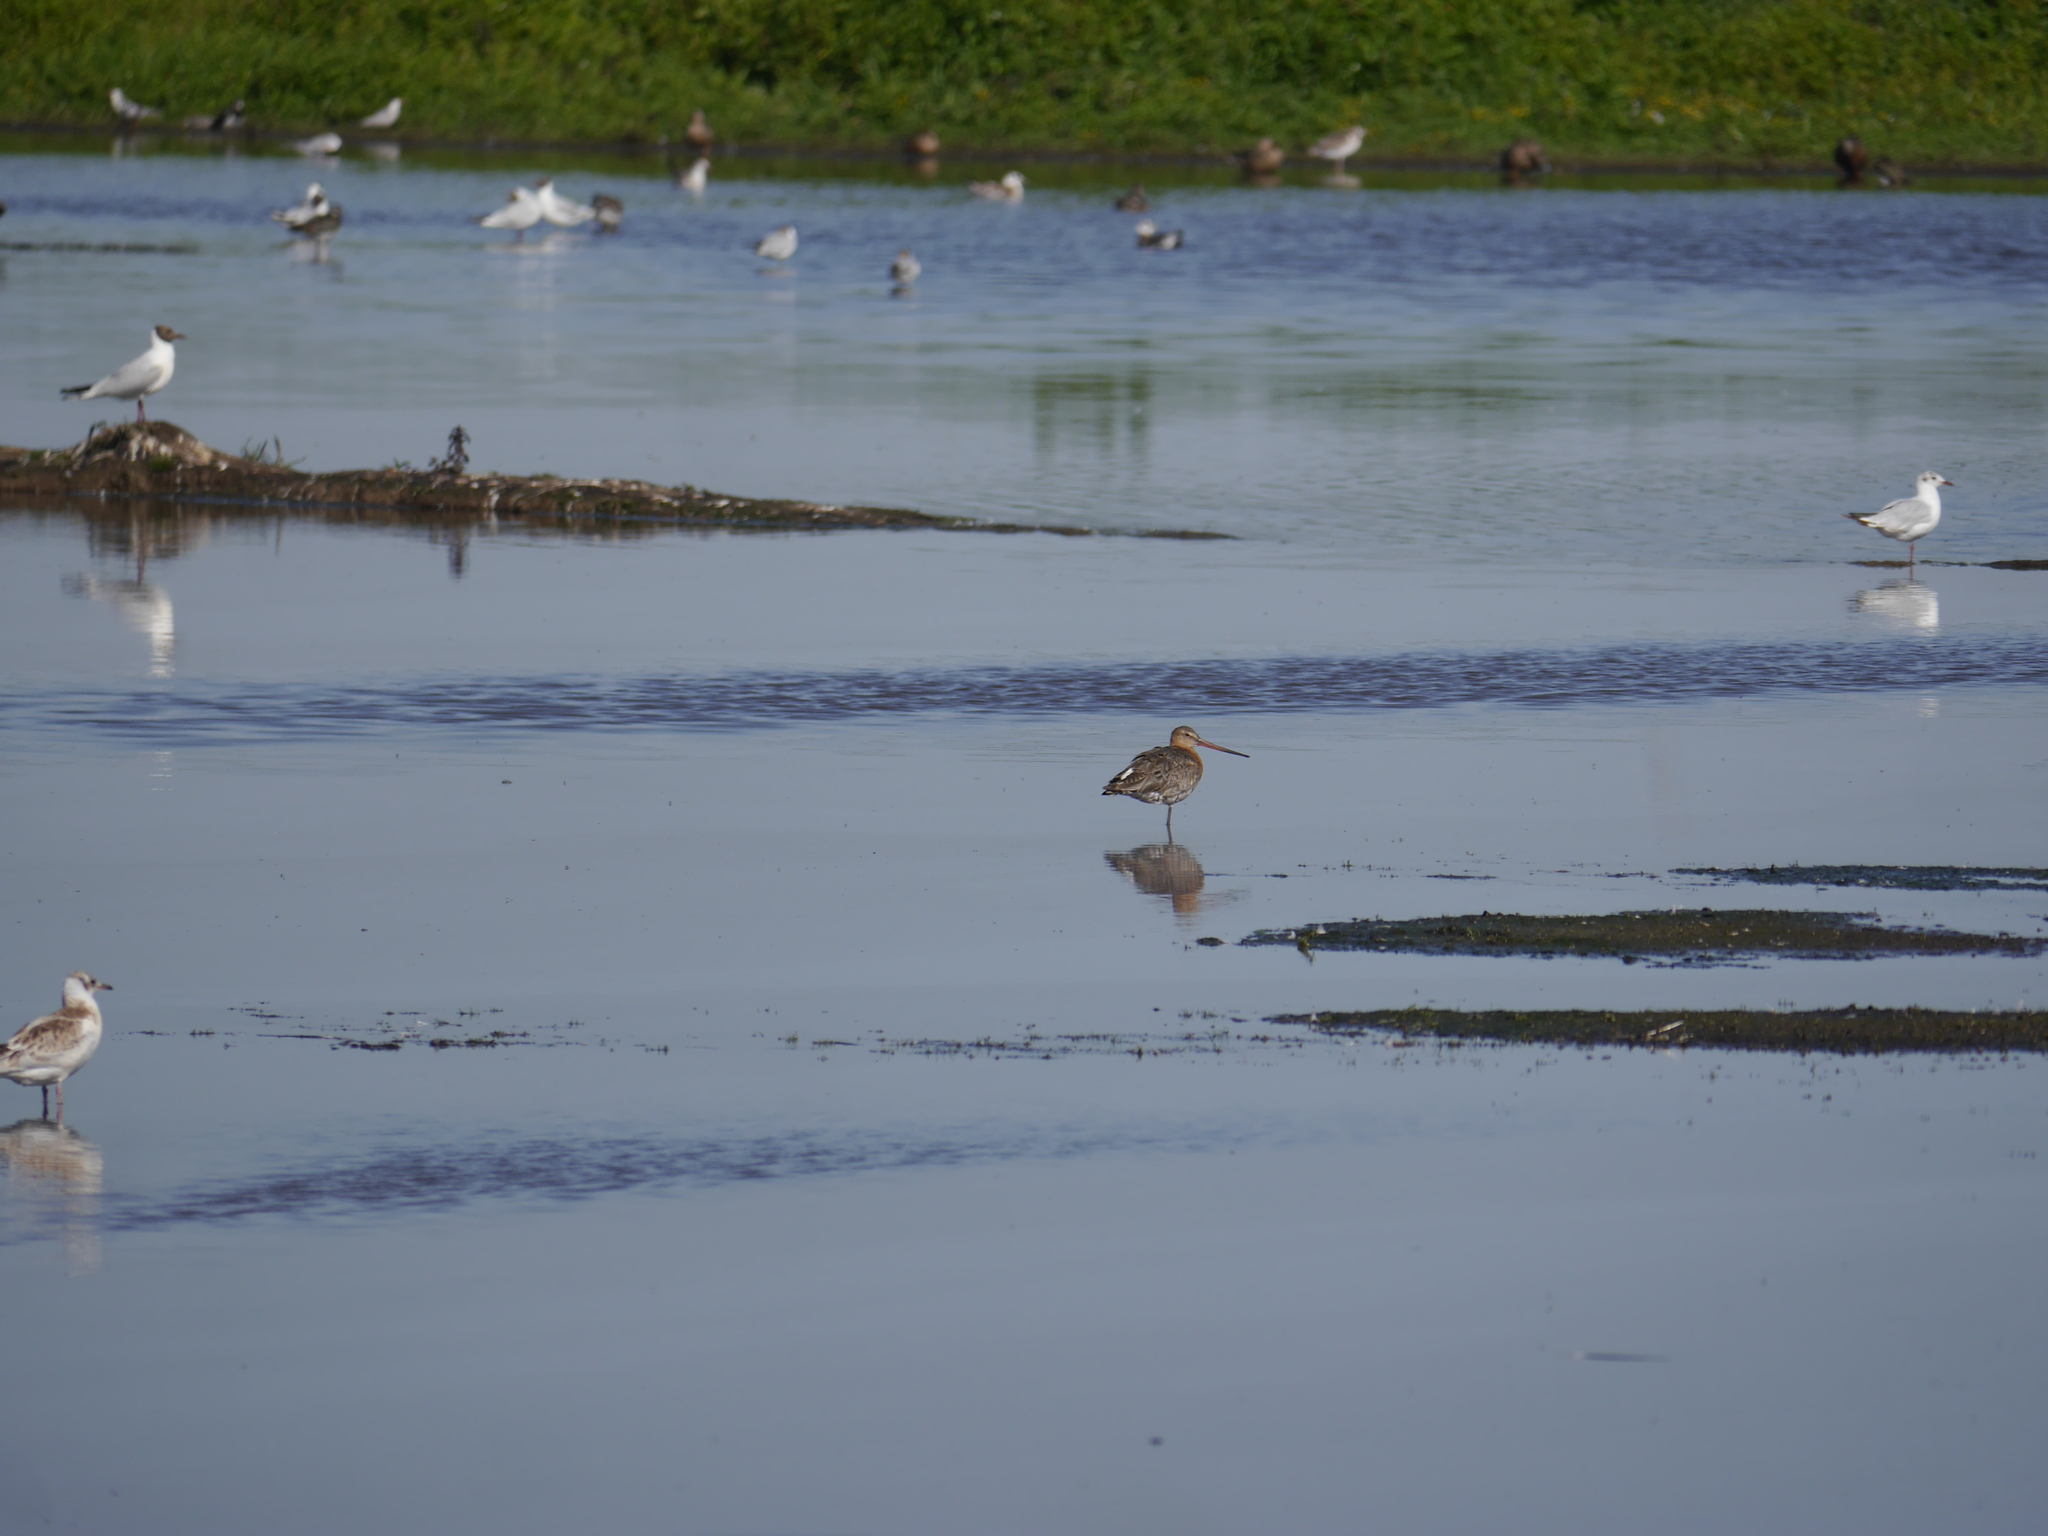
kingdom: Animalia
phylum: Chordata
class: Aves
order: Charadriiformes
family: Scolopacidae
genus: Limosa
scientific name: Limosa limosa
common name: Black-tailed godwit
